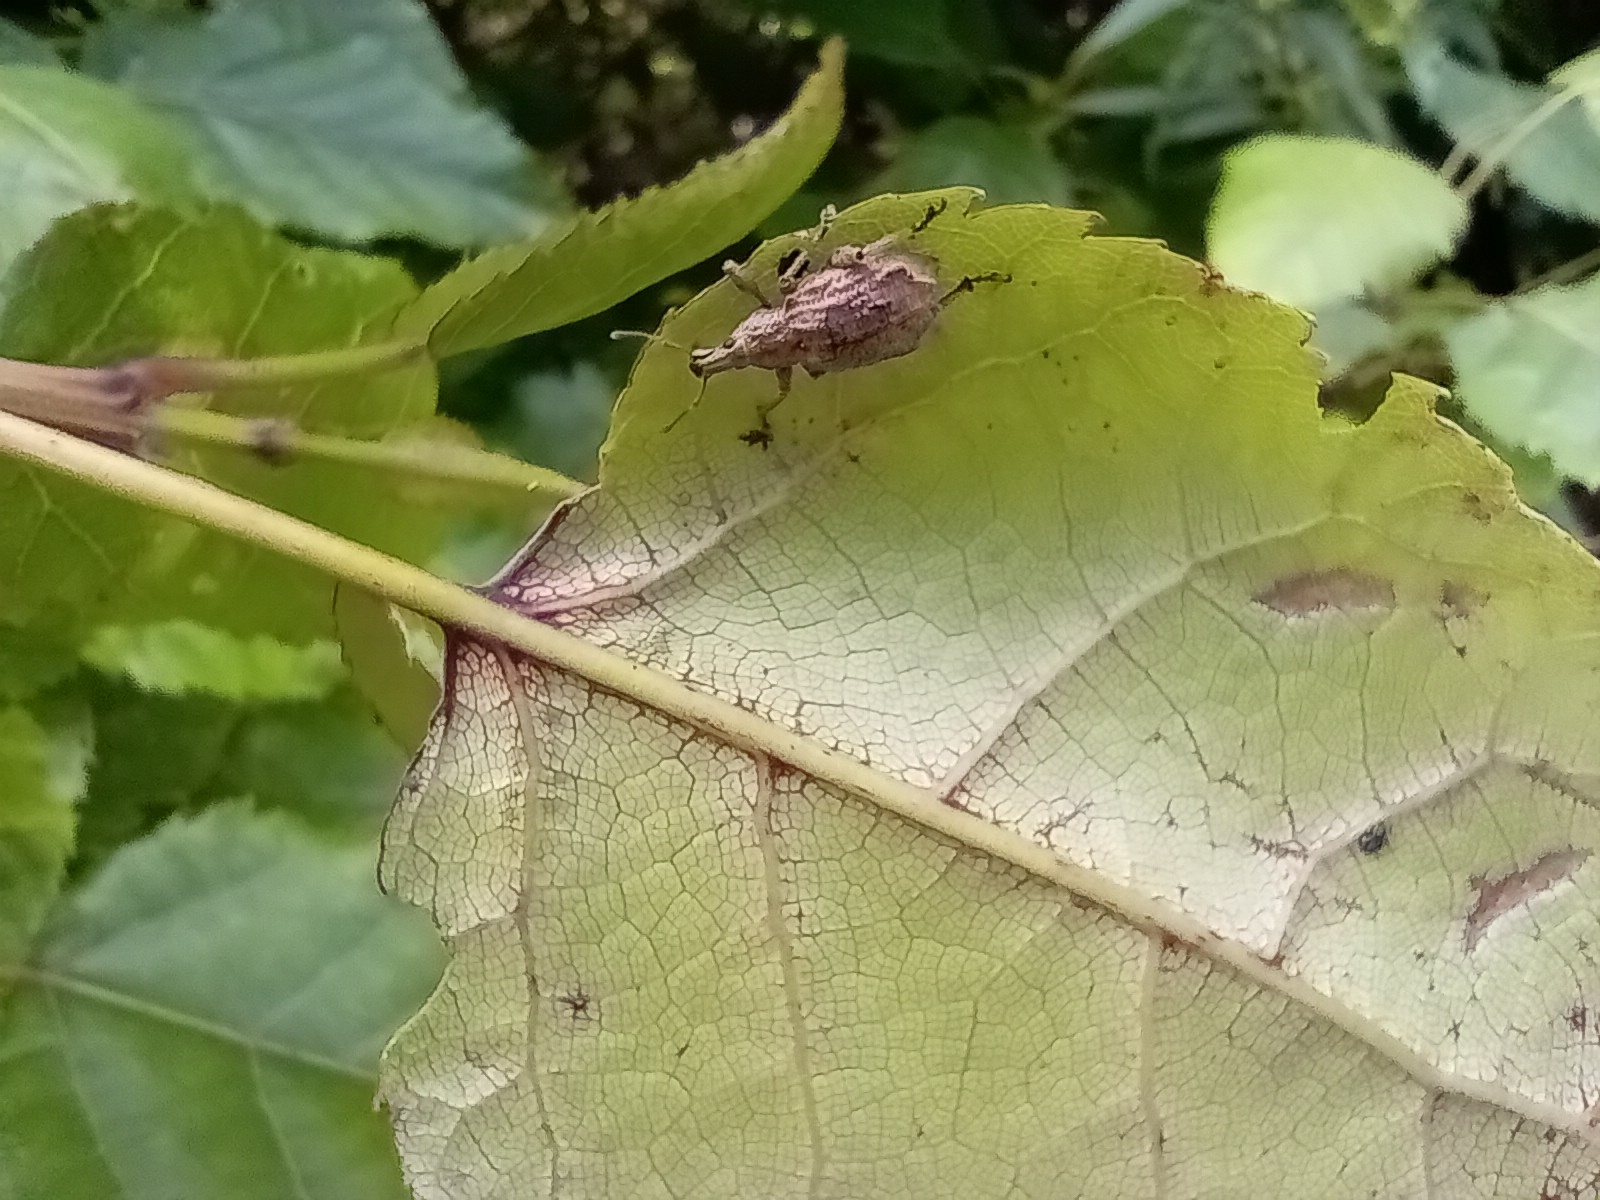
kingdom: Animalia
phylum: Arthropoda
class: Insecta
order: Coleoptera
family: Curculionidae
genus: Catoptes
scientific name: Catoptes censorius
